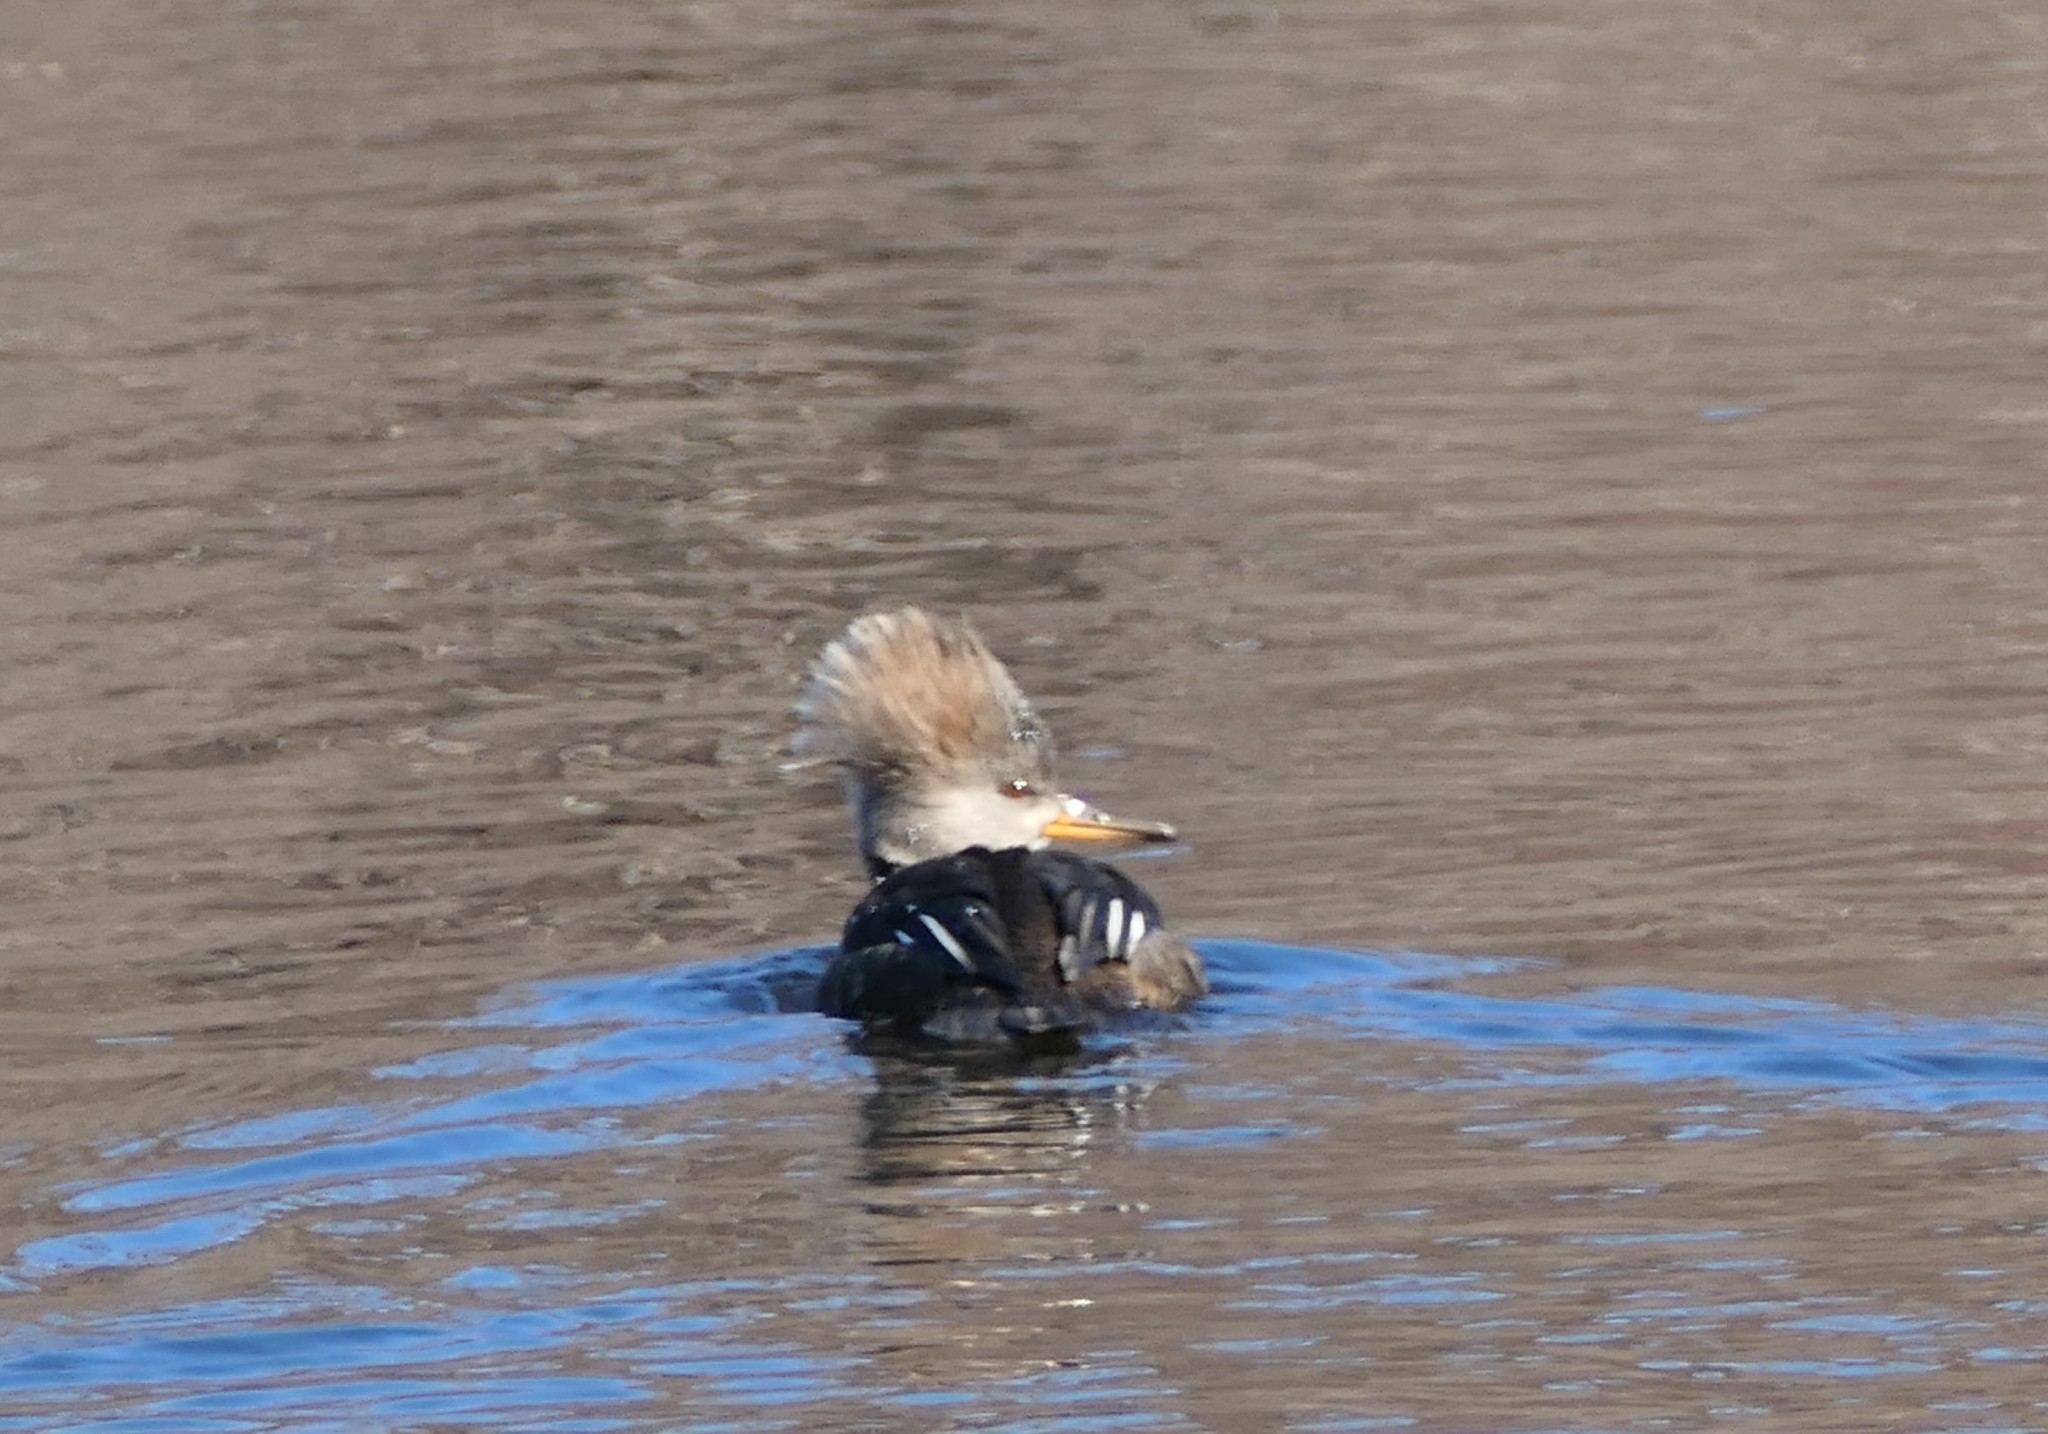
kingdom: Animalia
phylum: Chordata
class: Aves
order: Anseriformes
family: Anatidae
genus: Lophodytes
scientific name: Lophodytes cucullatus
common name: Hooded merganser
